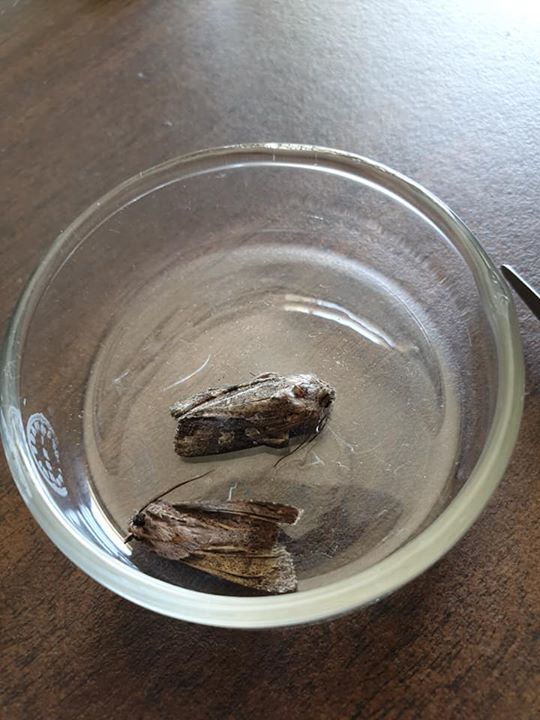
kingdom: Animalia
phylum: Arthropoda
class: Insecta
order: Lepidoptera
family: Noctuidae
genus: Ichneutica
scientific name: Ichneutica mutans
